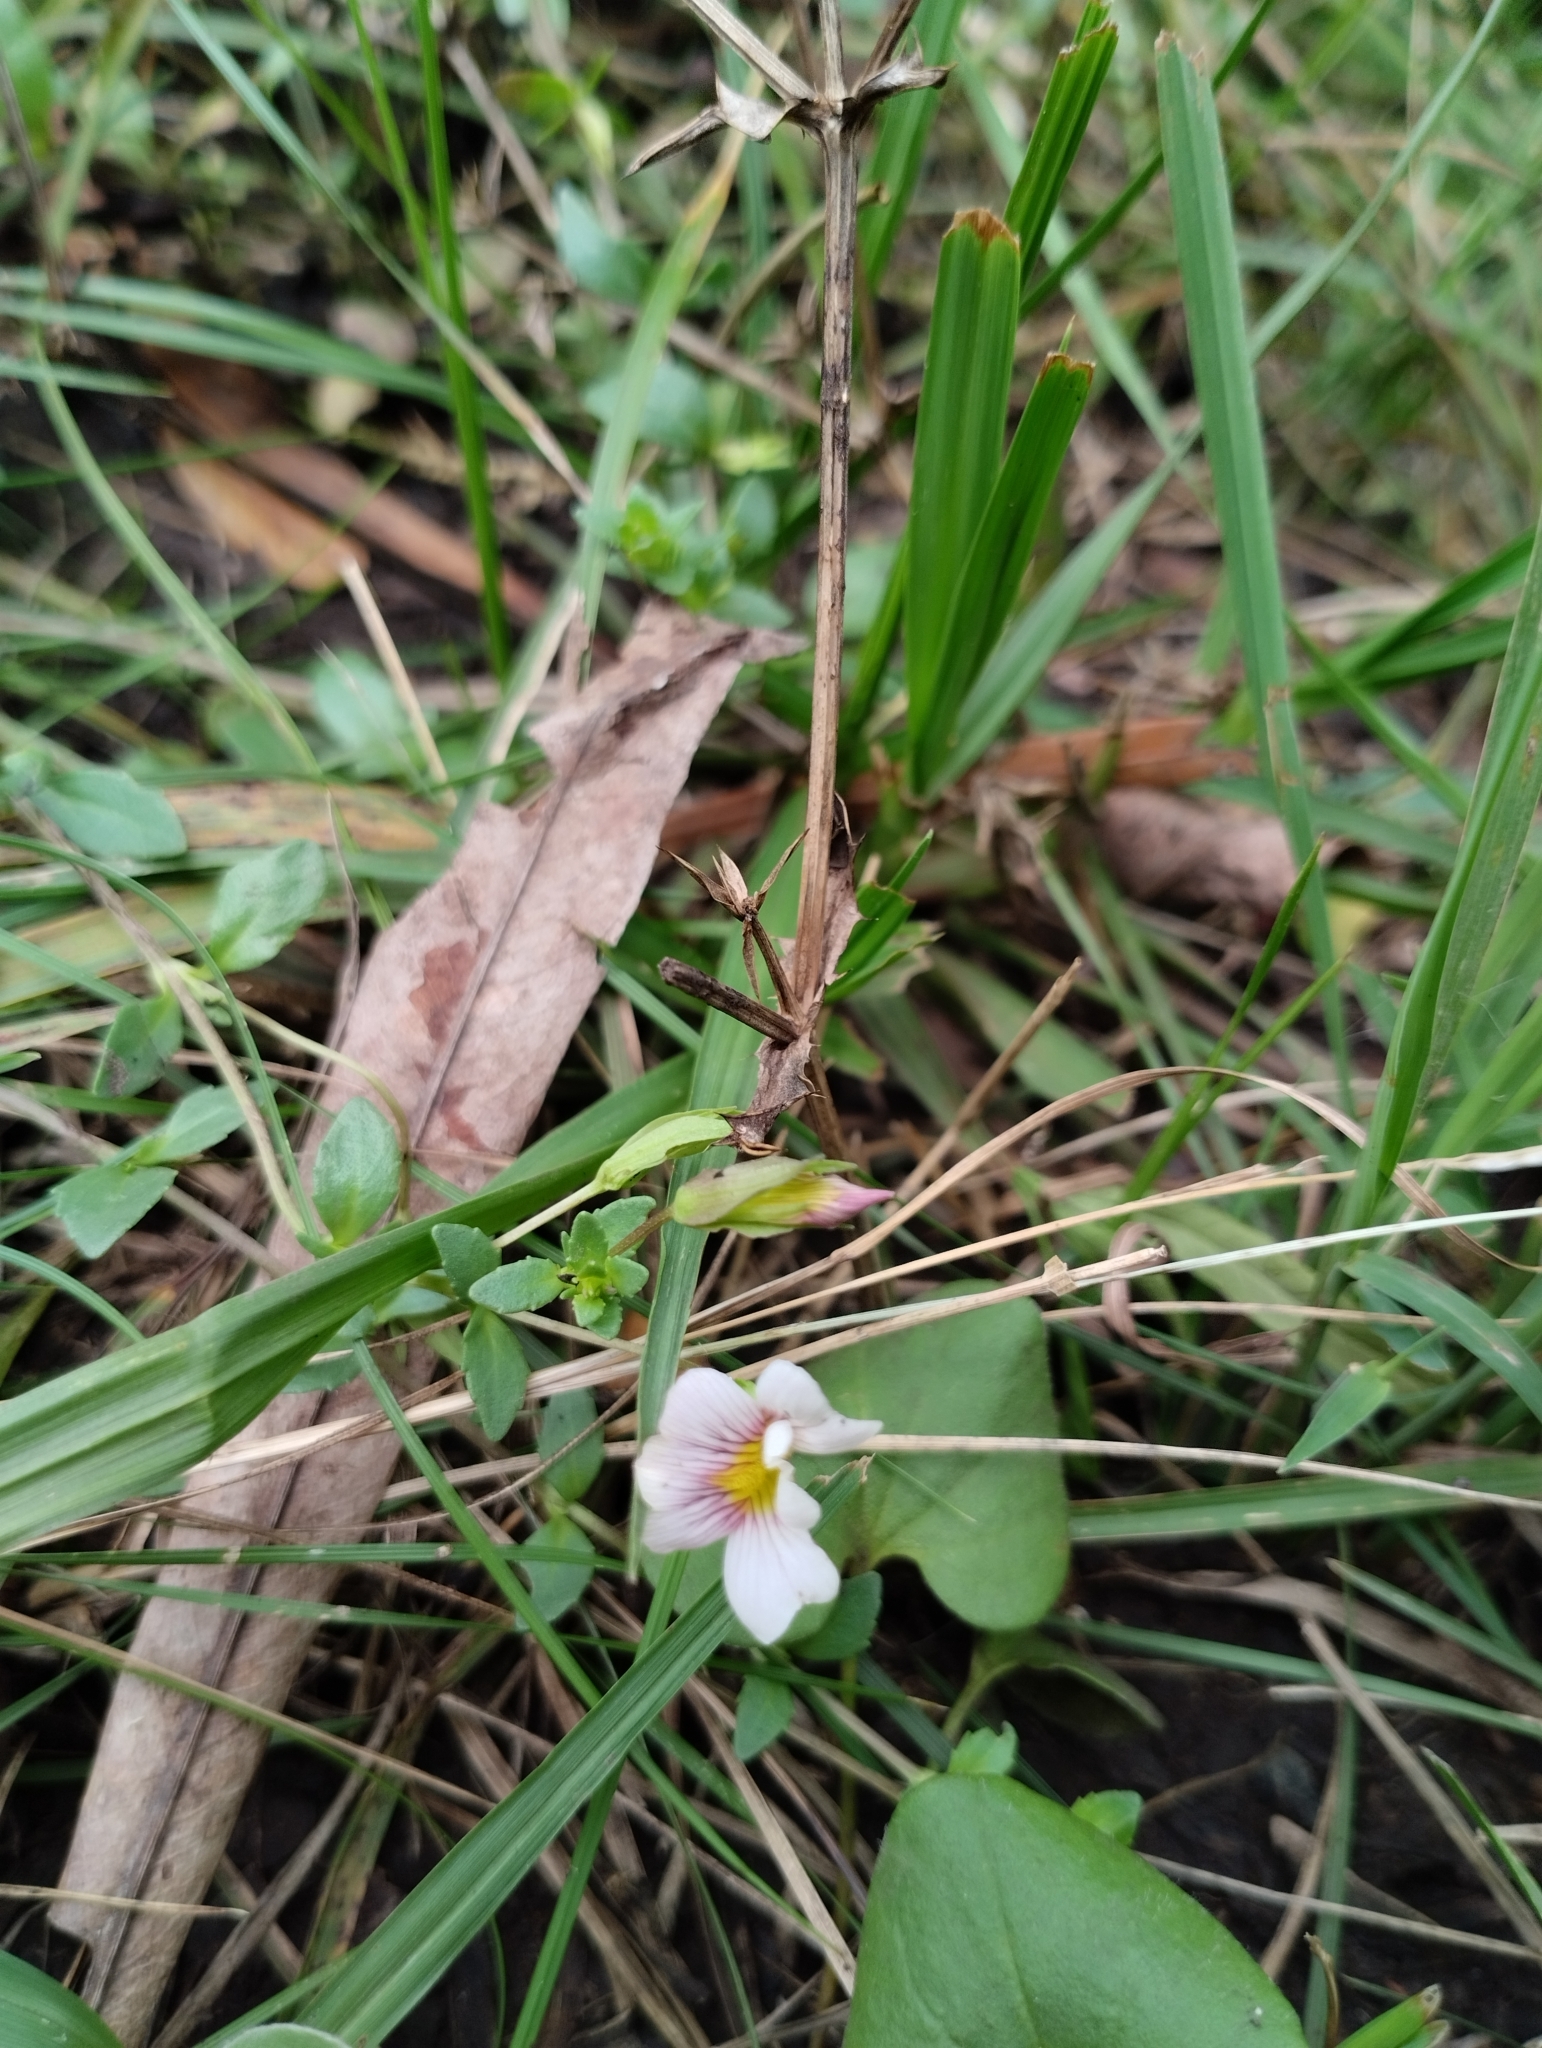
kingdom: Plantae
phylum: Tracheophyta
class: Magnoliopsida
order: Lamiales
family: Plantaginaceae
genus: Mecardonia
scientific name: Mecardonia procumbens
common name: Baby jump-up
